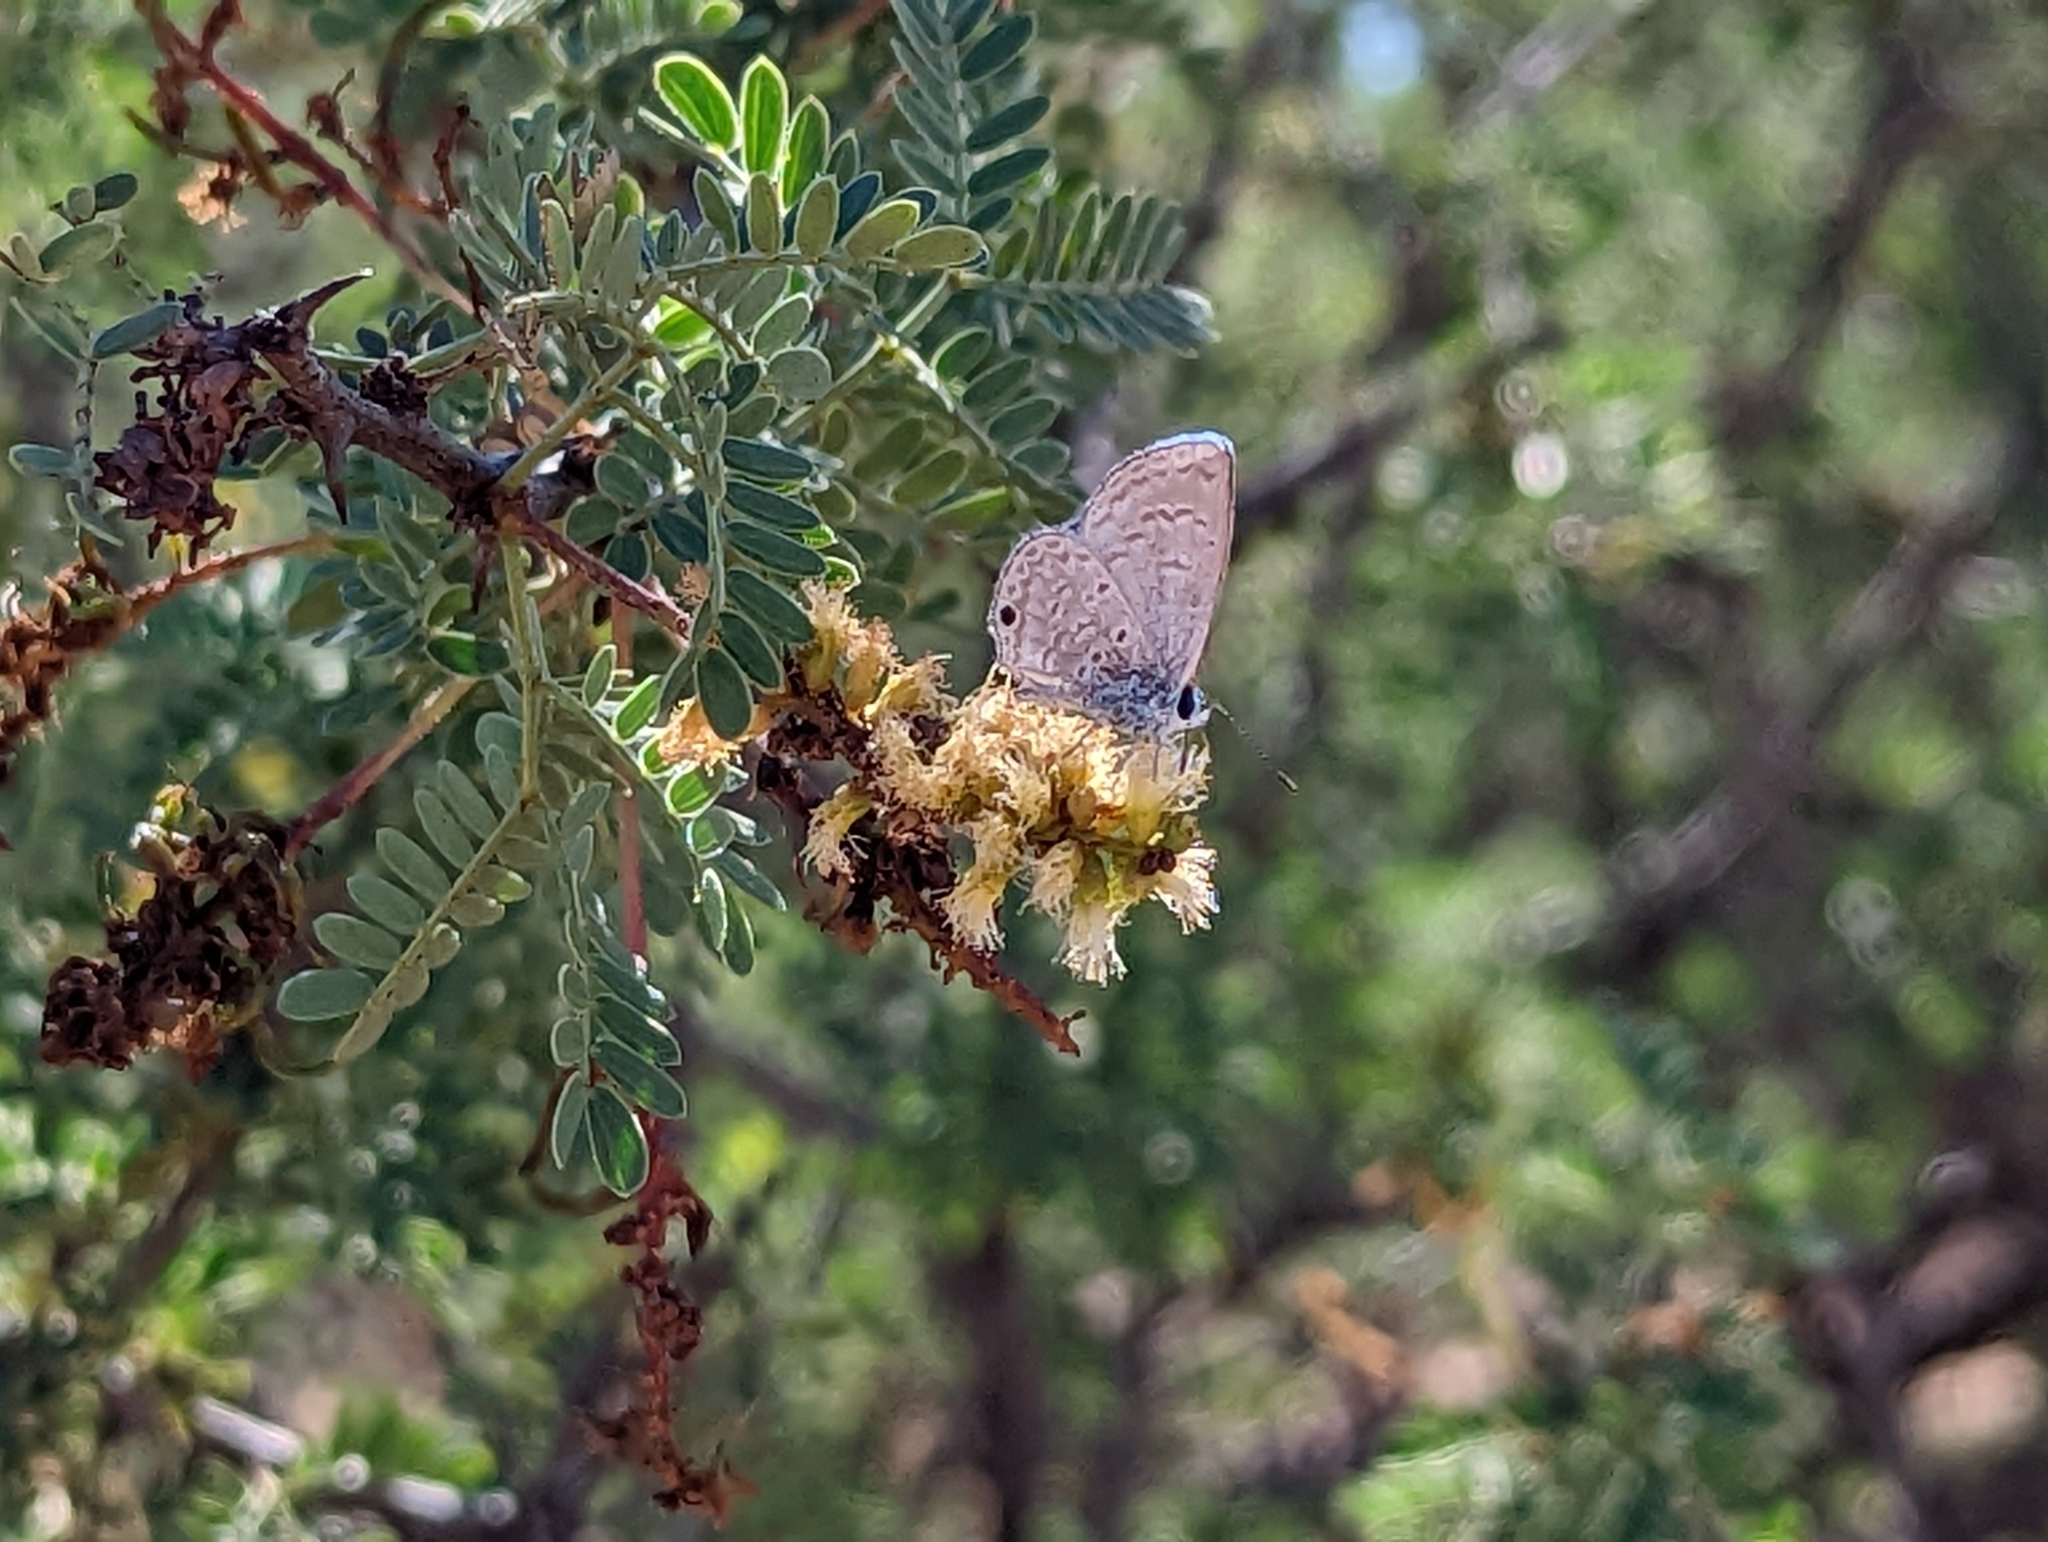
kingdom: Animalia
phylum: Arthropoda
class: Insecta
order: Lepidoptera
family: Lycaenidae
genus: Hemiargus
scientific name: Hemiargus ceraunus
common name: Ceraunus blue
